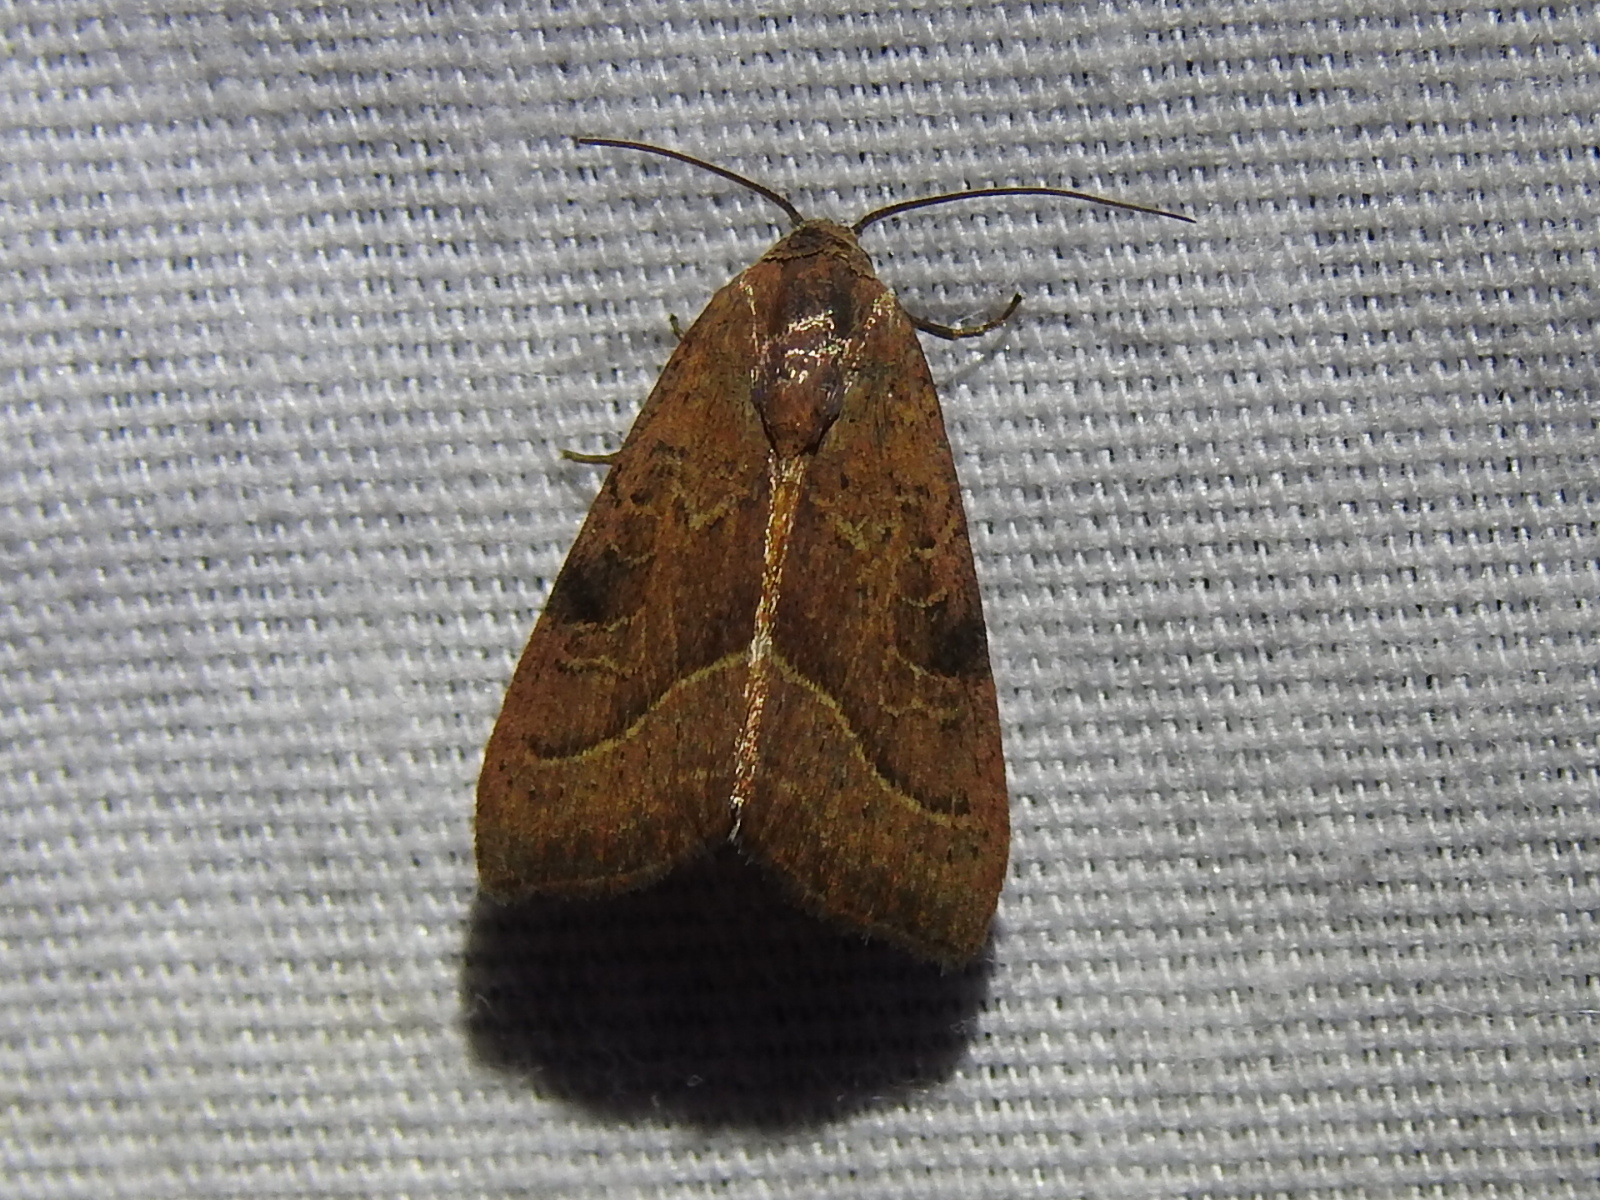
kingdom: Animalia
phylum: Arthropoda
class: Insecta
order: Lepidoptera
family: Noctuidae
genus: Galgula
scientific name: Galgula partita
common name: Wedgeling
